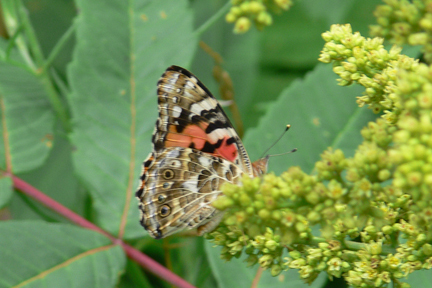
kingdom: Animalia
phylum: Arthropoda
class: Insecta
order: Lepidoptera
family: Nymphalidae
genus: Vanessa
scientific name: Vanessa cardui
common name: Painted lady
